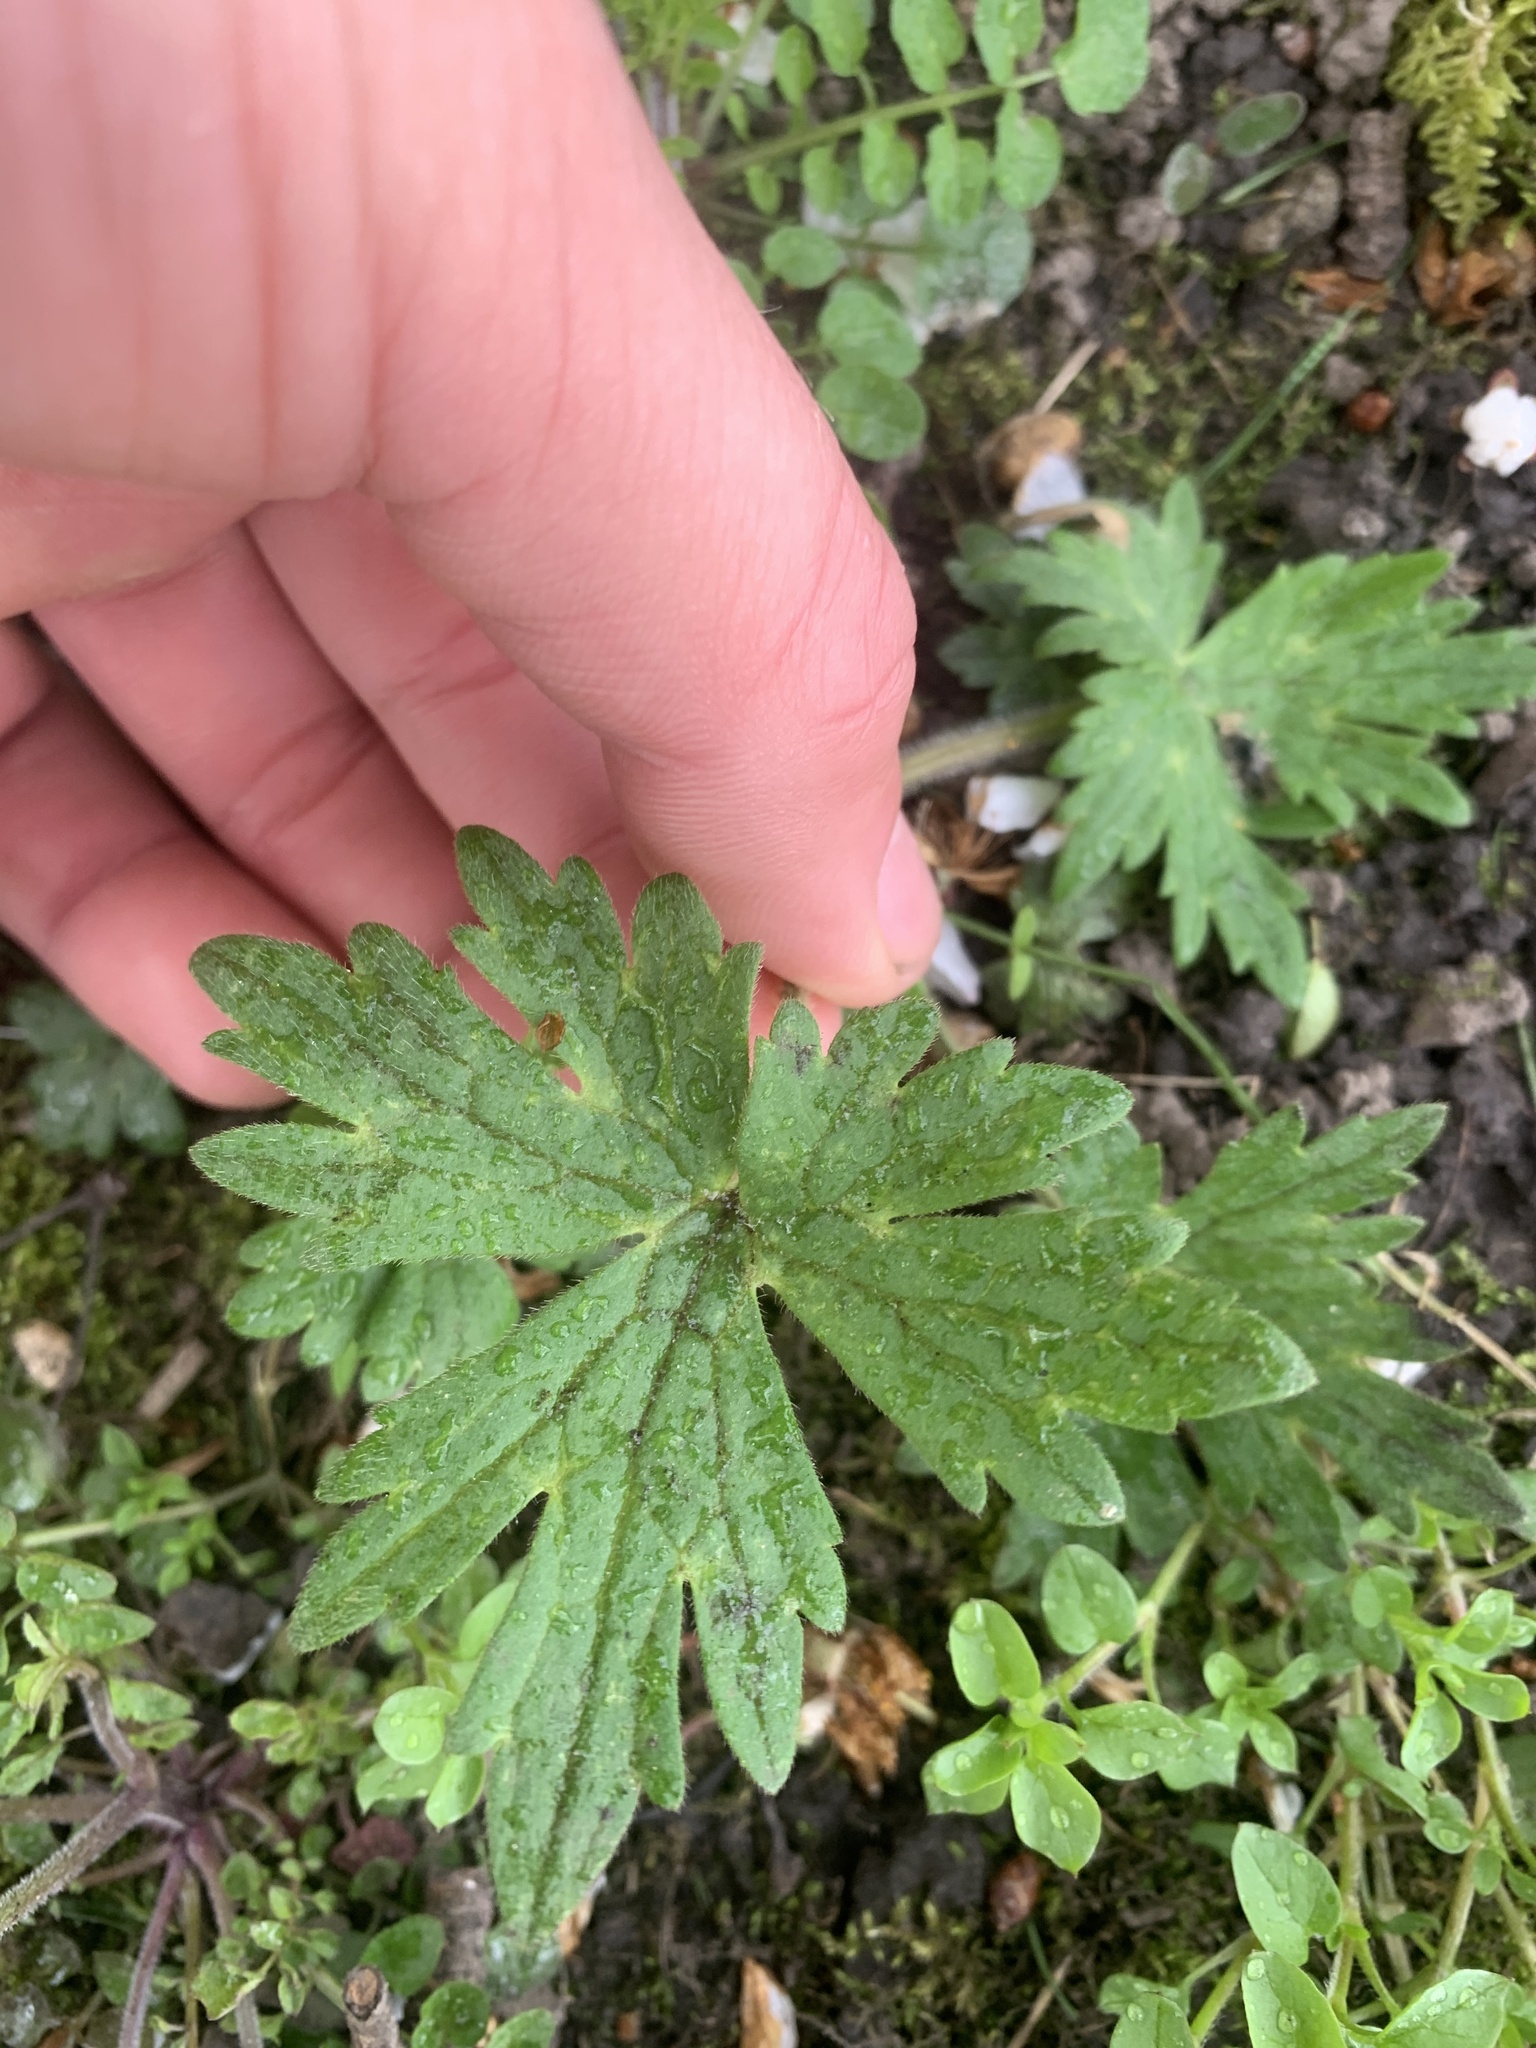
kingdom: Plantae
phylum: Tracheophyta
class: Magnoliopsida
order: Ranunculales
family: Ranunculaceae
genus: Ranunculus
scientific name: Ranunculus acris
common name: Meadow buttercup
